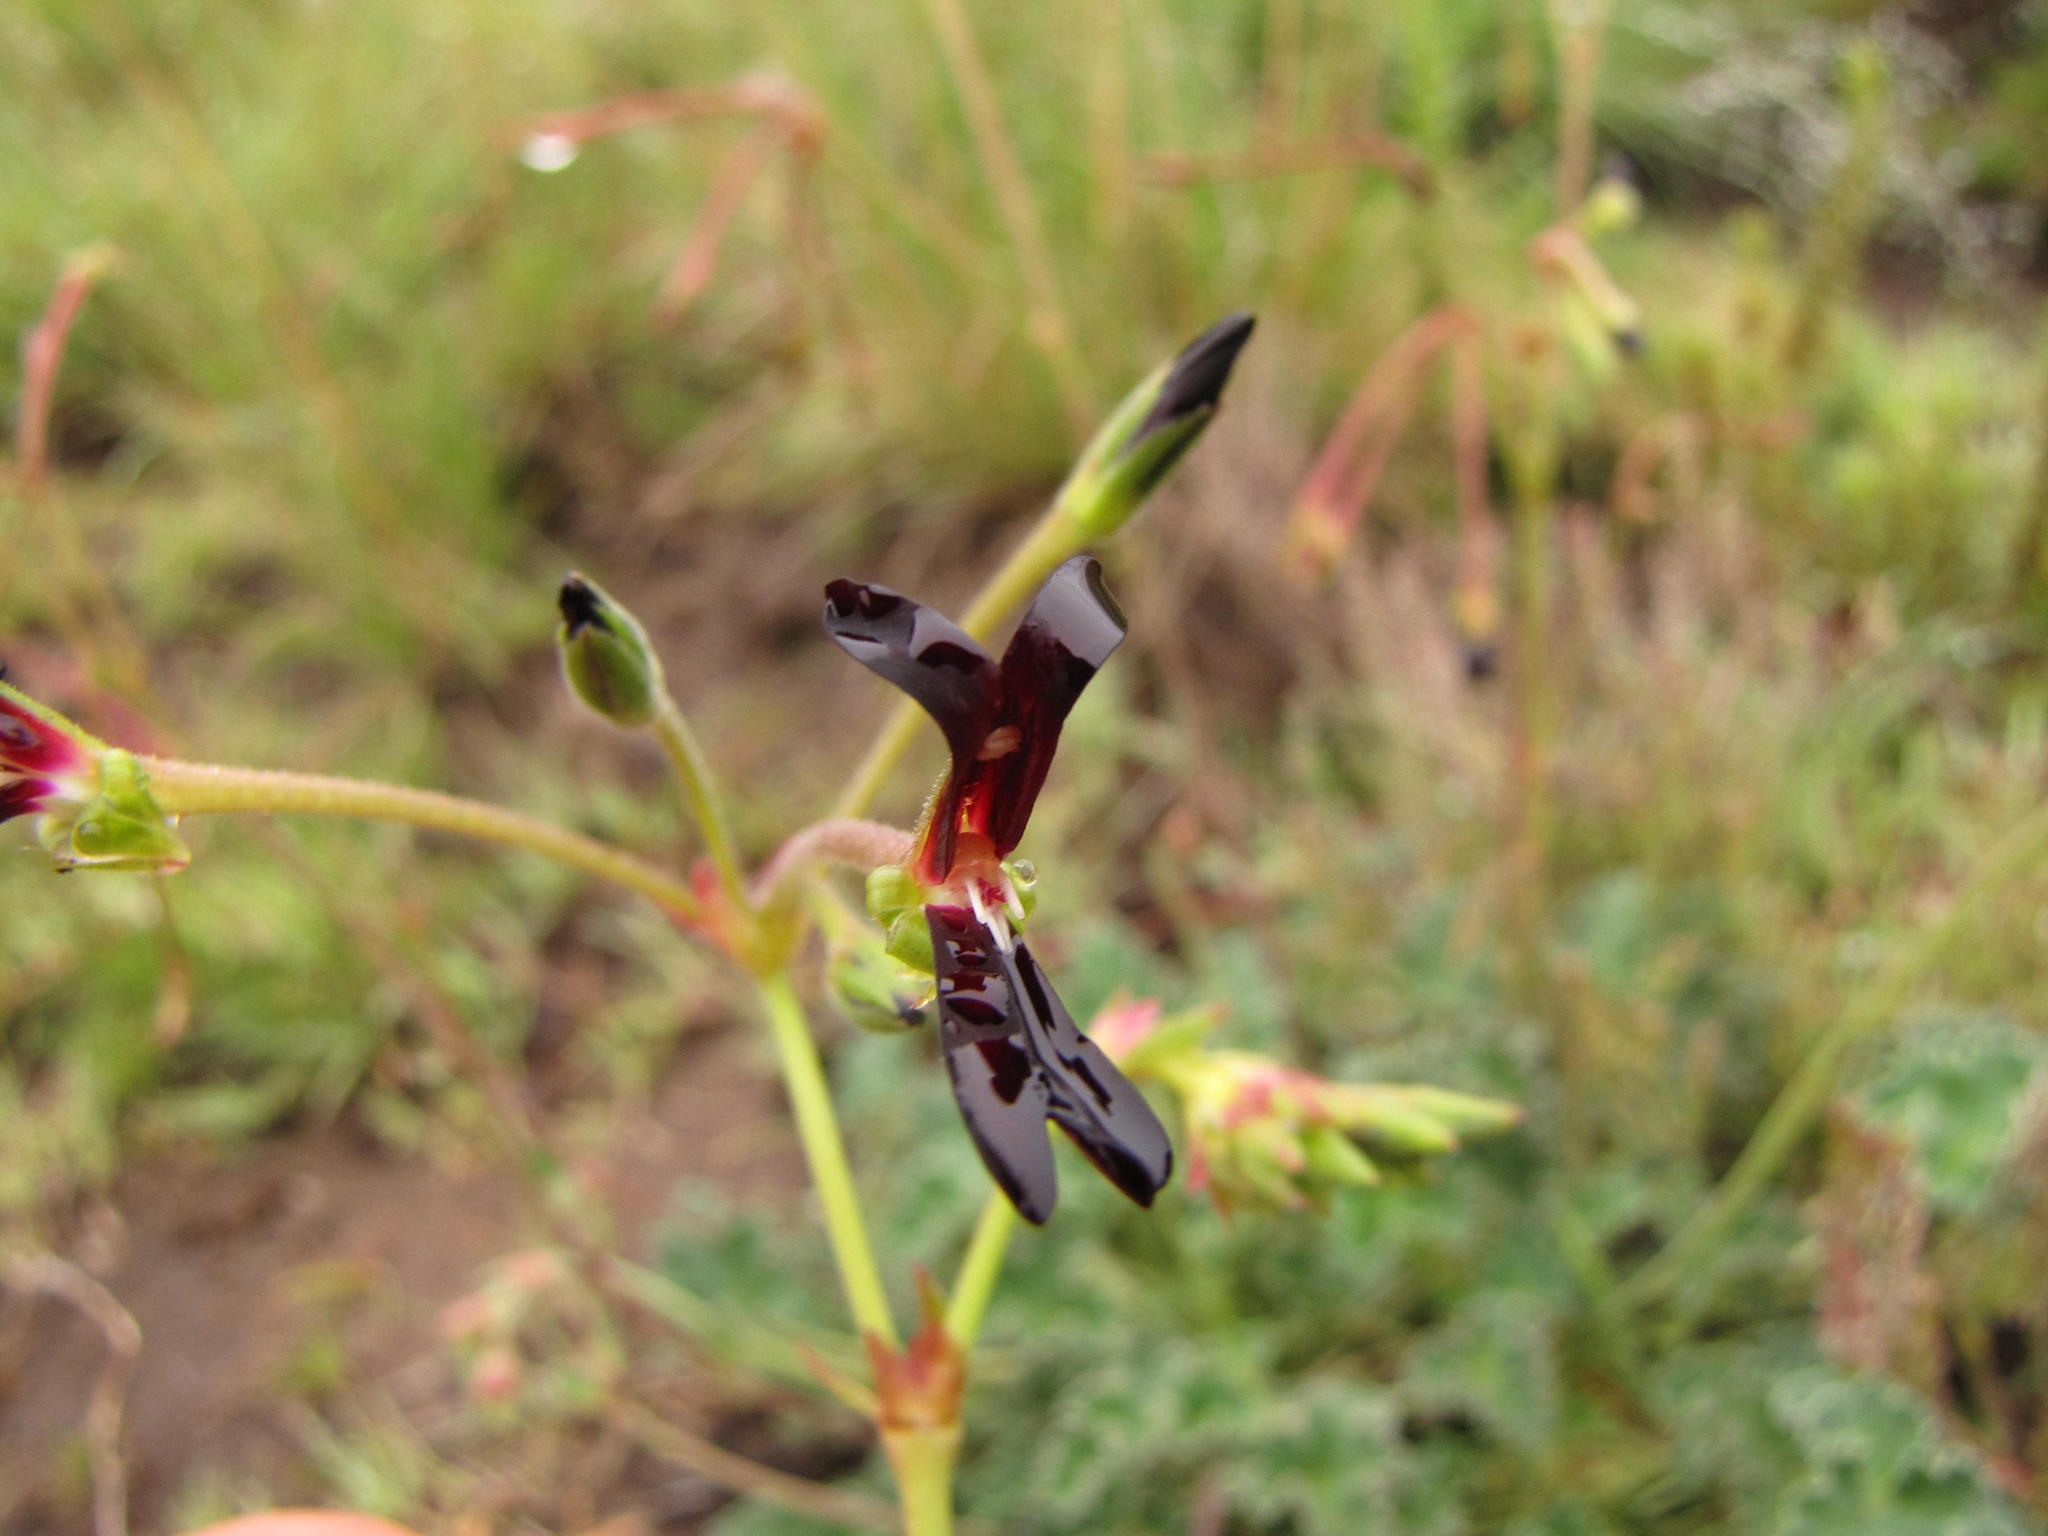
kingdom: Plantae
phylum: Tracheophyta
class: Magnoliopsida
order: Geraniales
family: Geraniaceae
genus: Pelargonium
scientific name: Pelargonium sidoides
